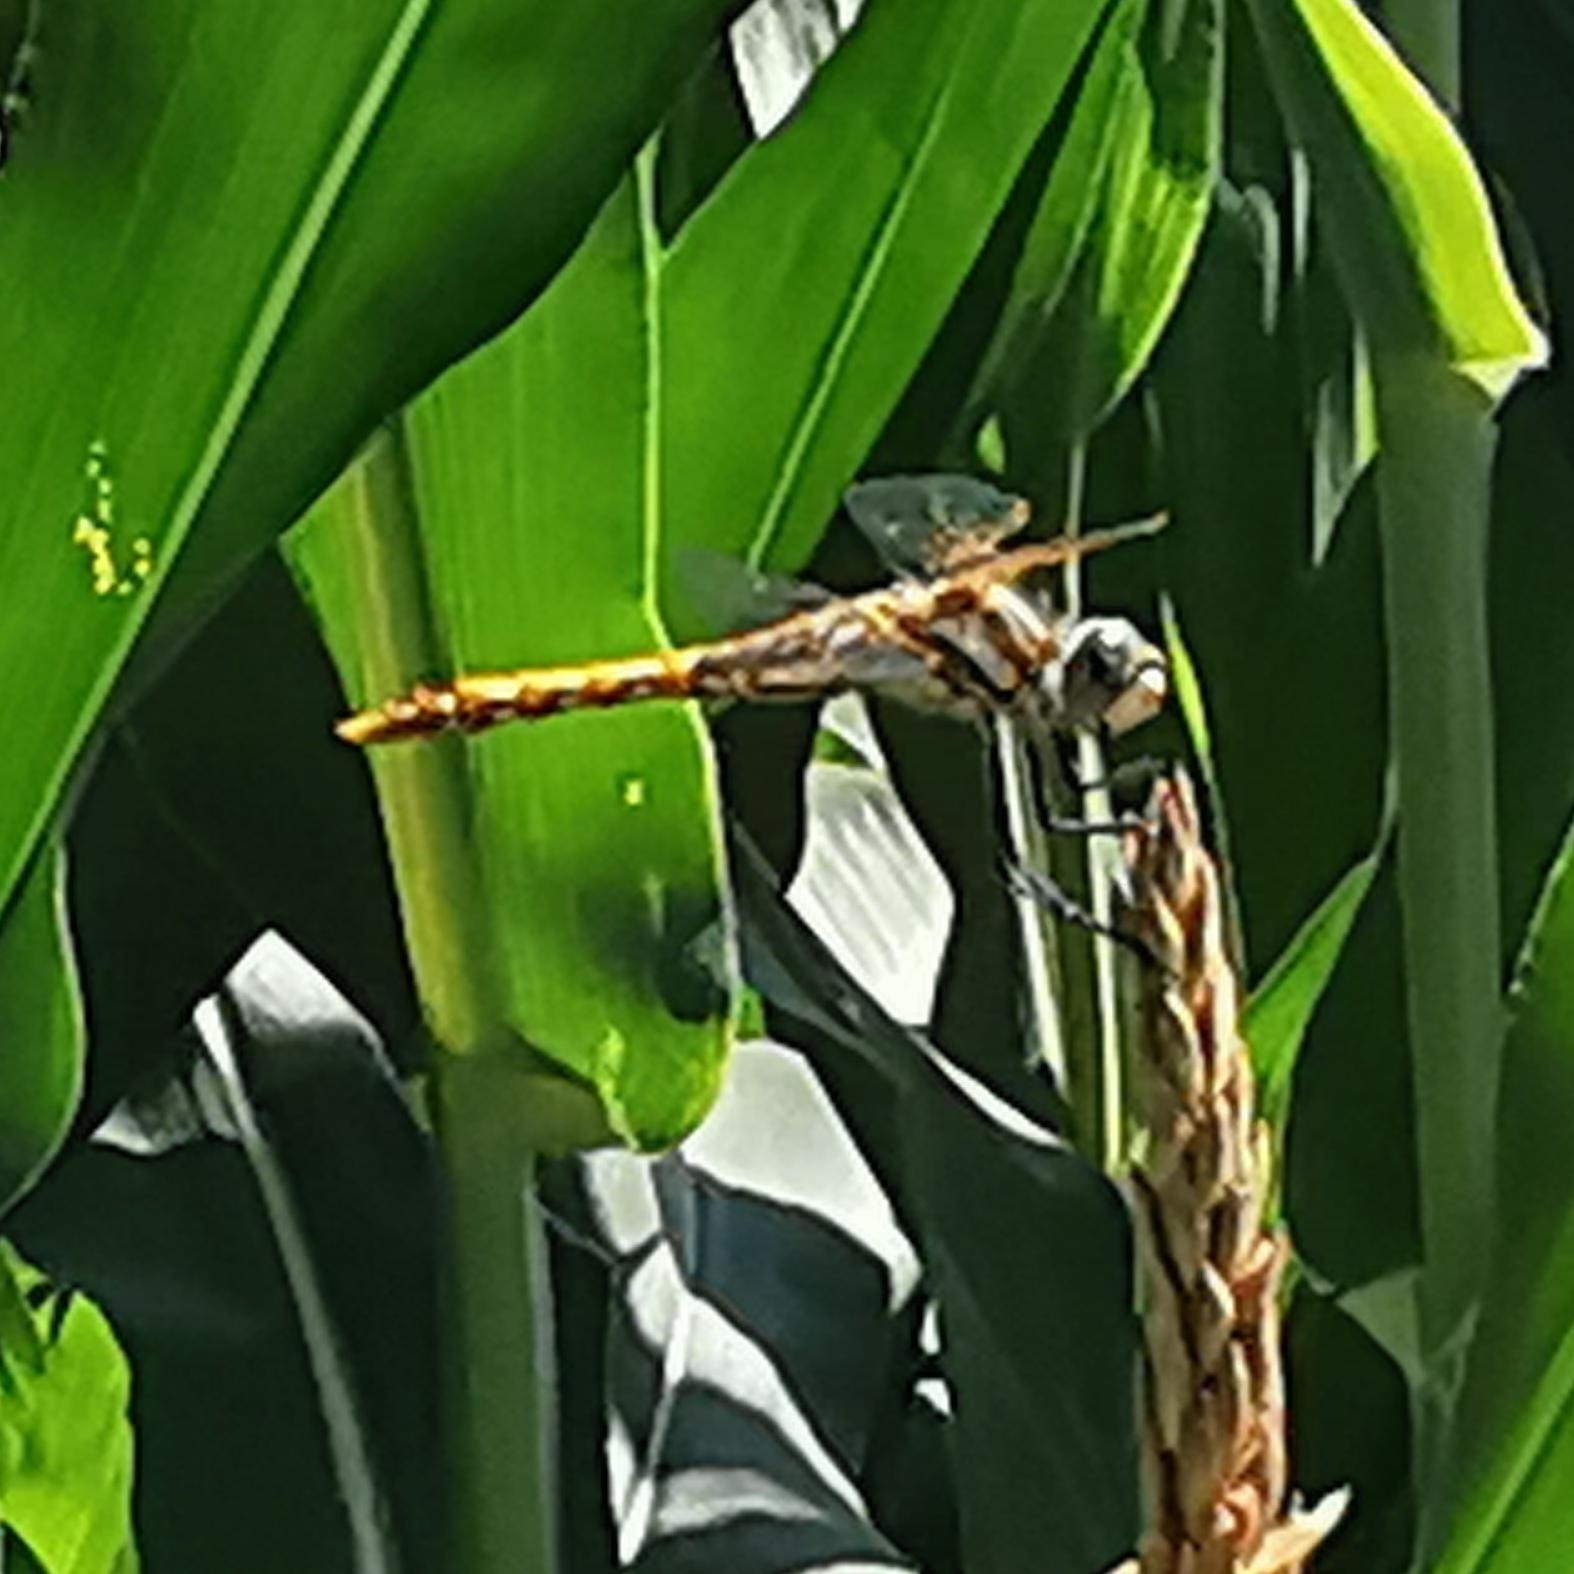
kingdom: Animalia
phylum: Arthropoda
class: Insecta
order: Odonata
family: Libellulidae
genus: Sympetrum
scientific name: Sympetrum corruptum
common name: Variegated meadowhawk
